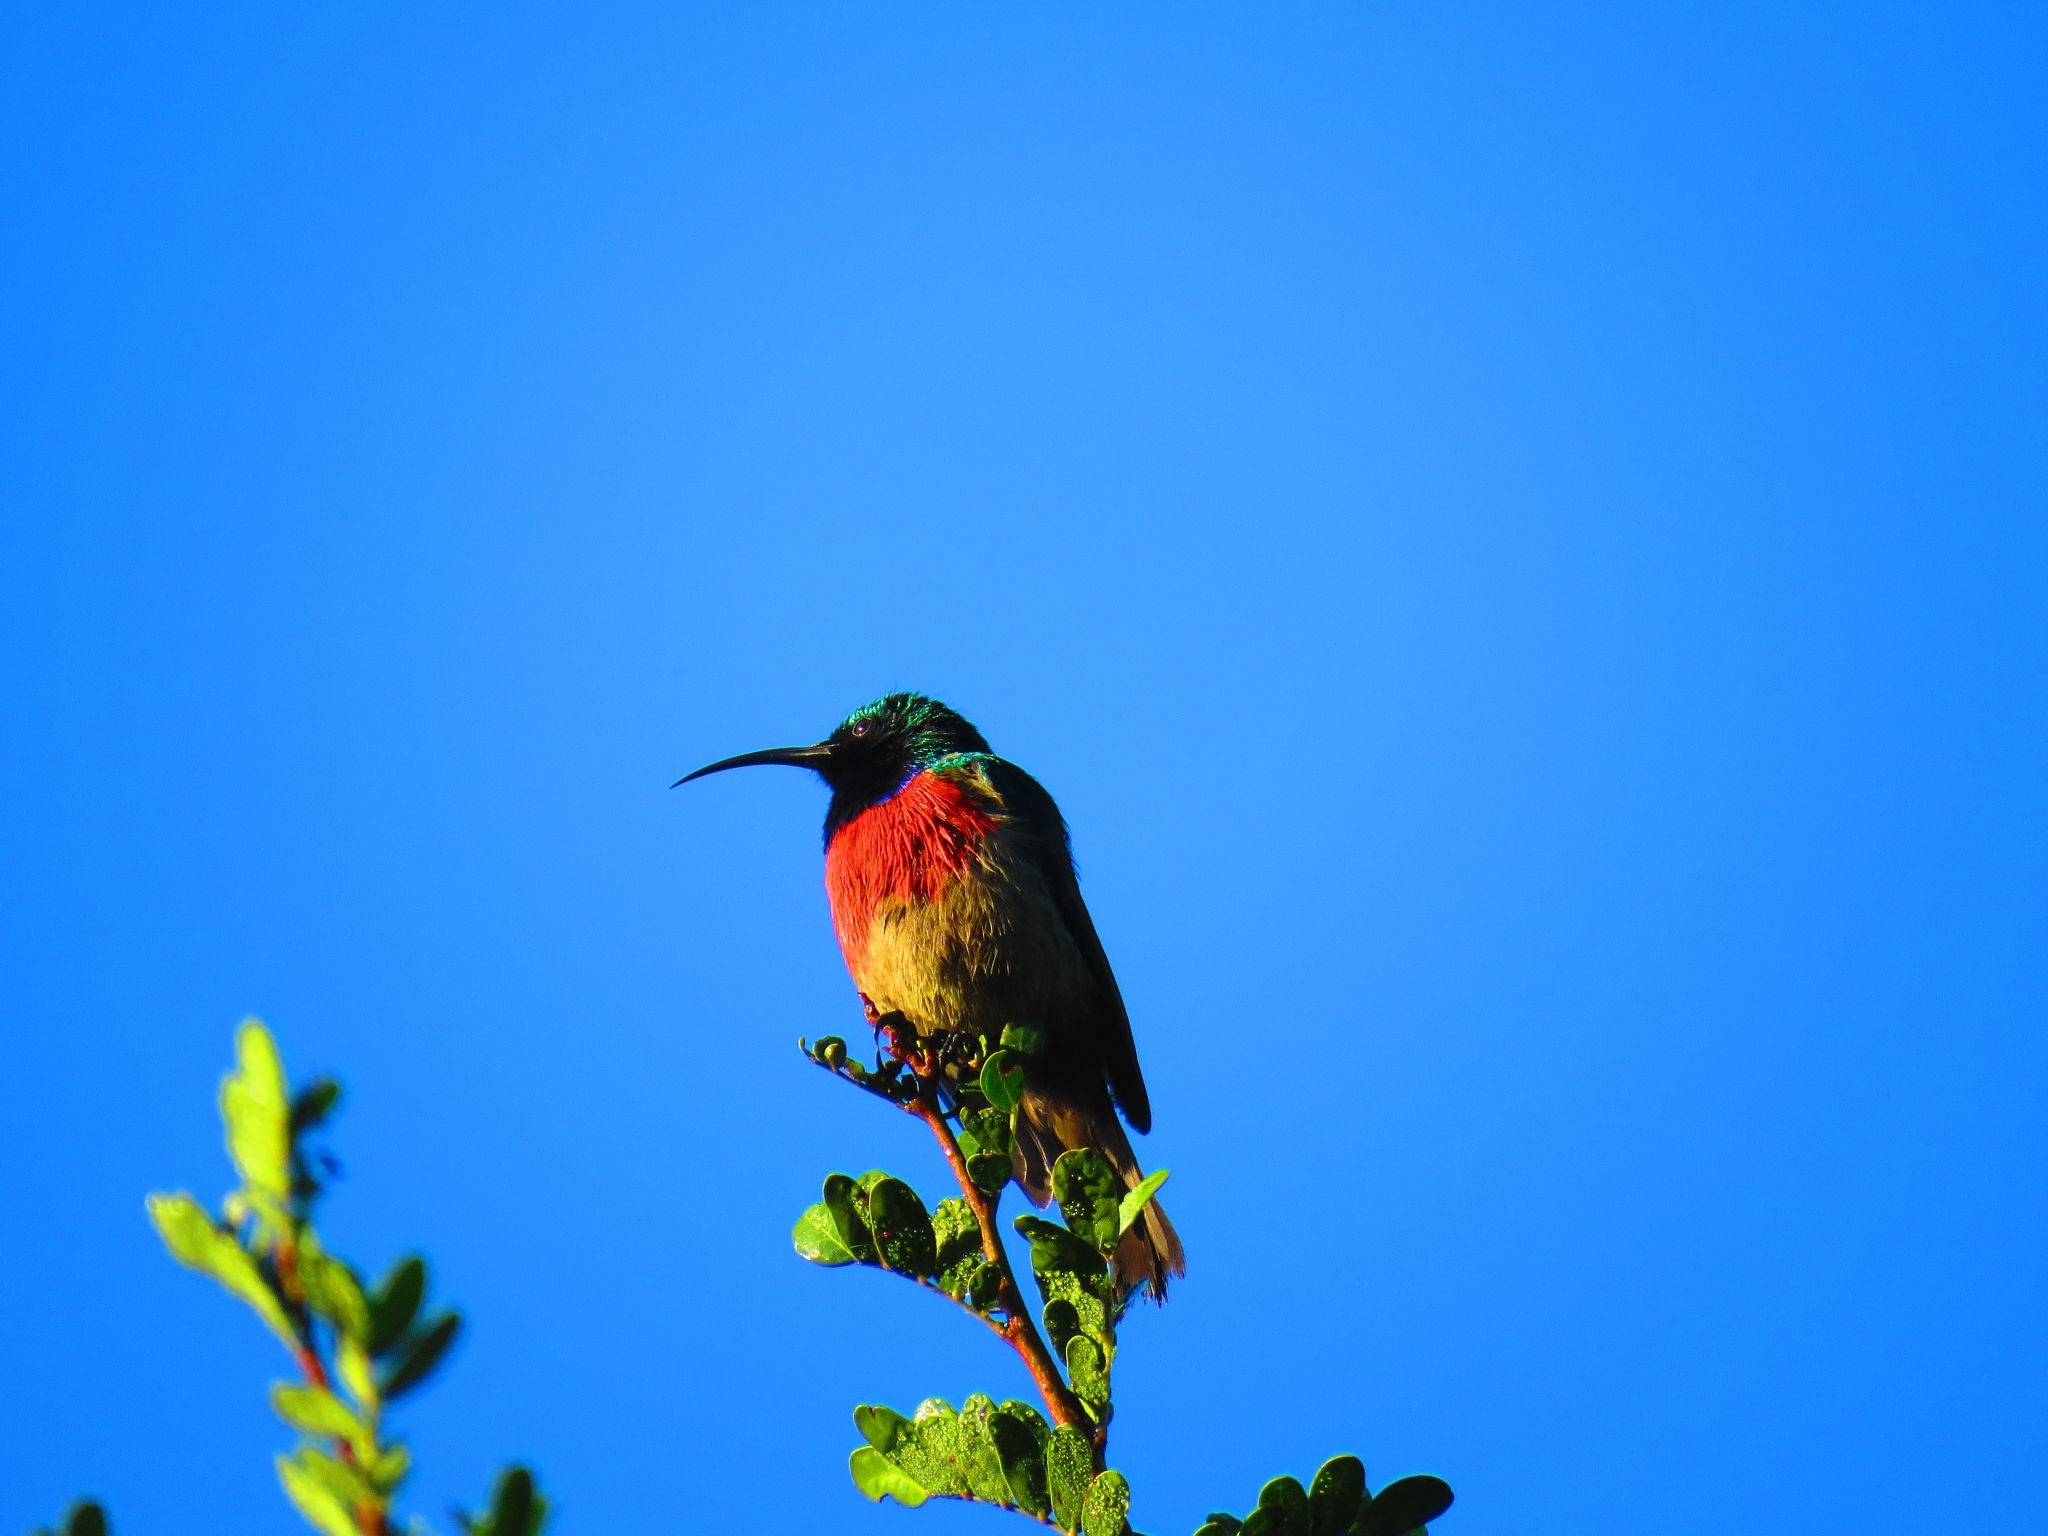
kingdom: Animalia
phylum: Chordata
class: Aves
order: Passeriformes
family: Nectariniidae
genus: Cinnyris
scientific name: Cinnyris afer
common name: Greater double-collared sunbird
